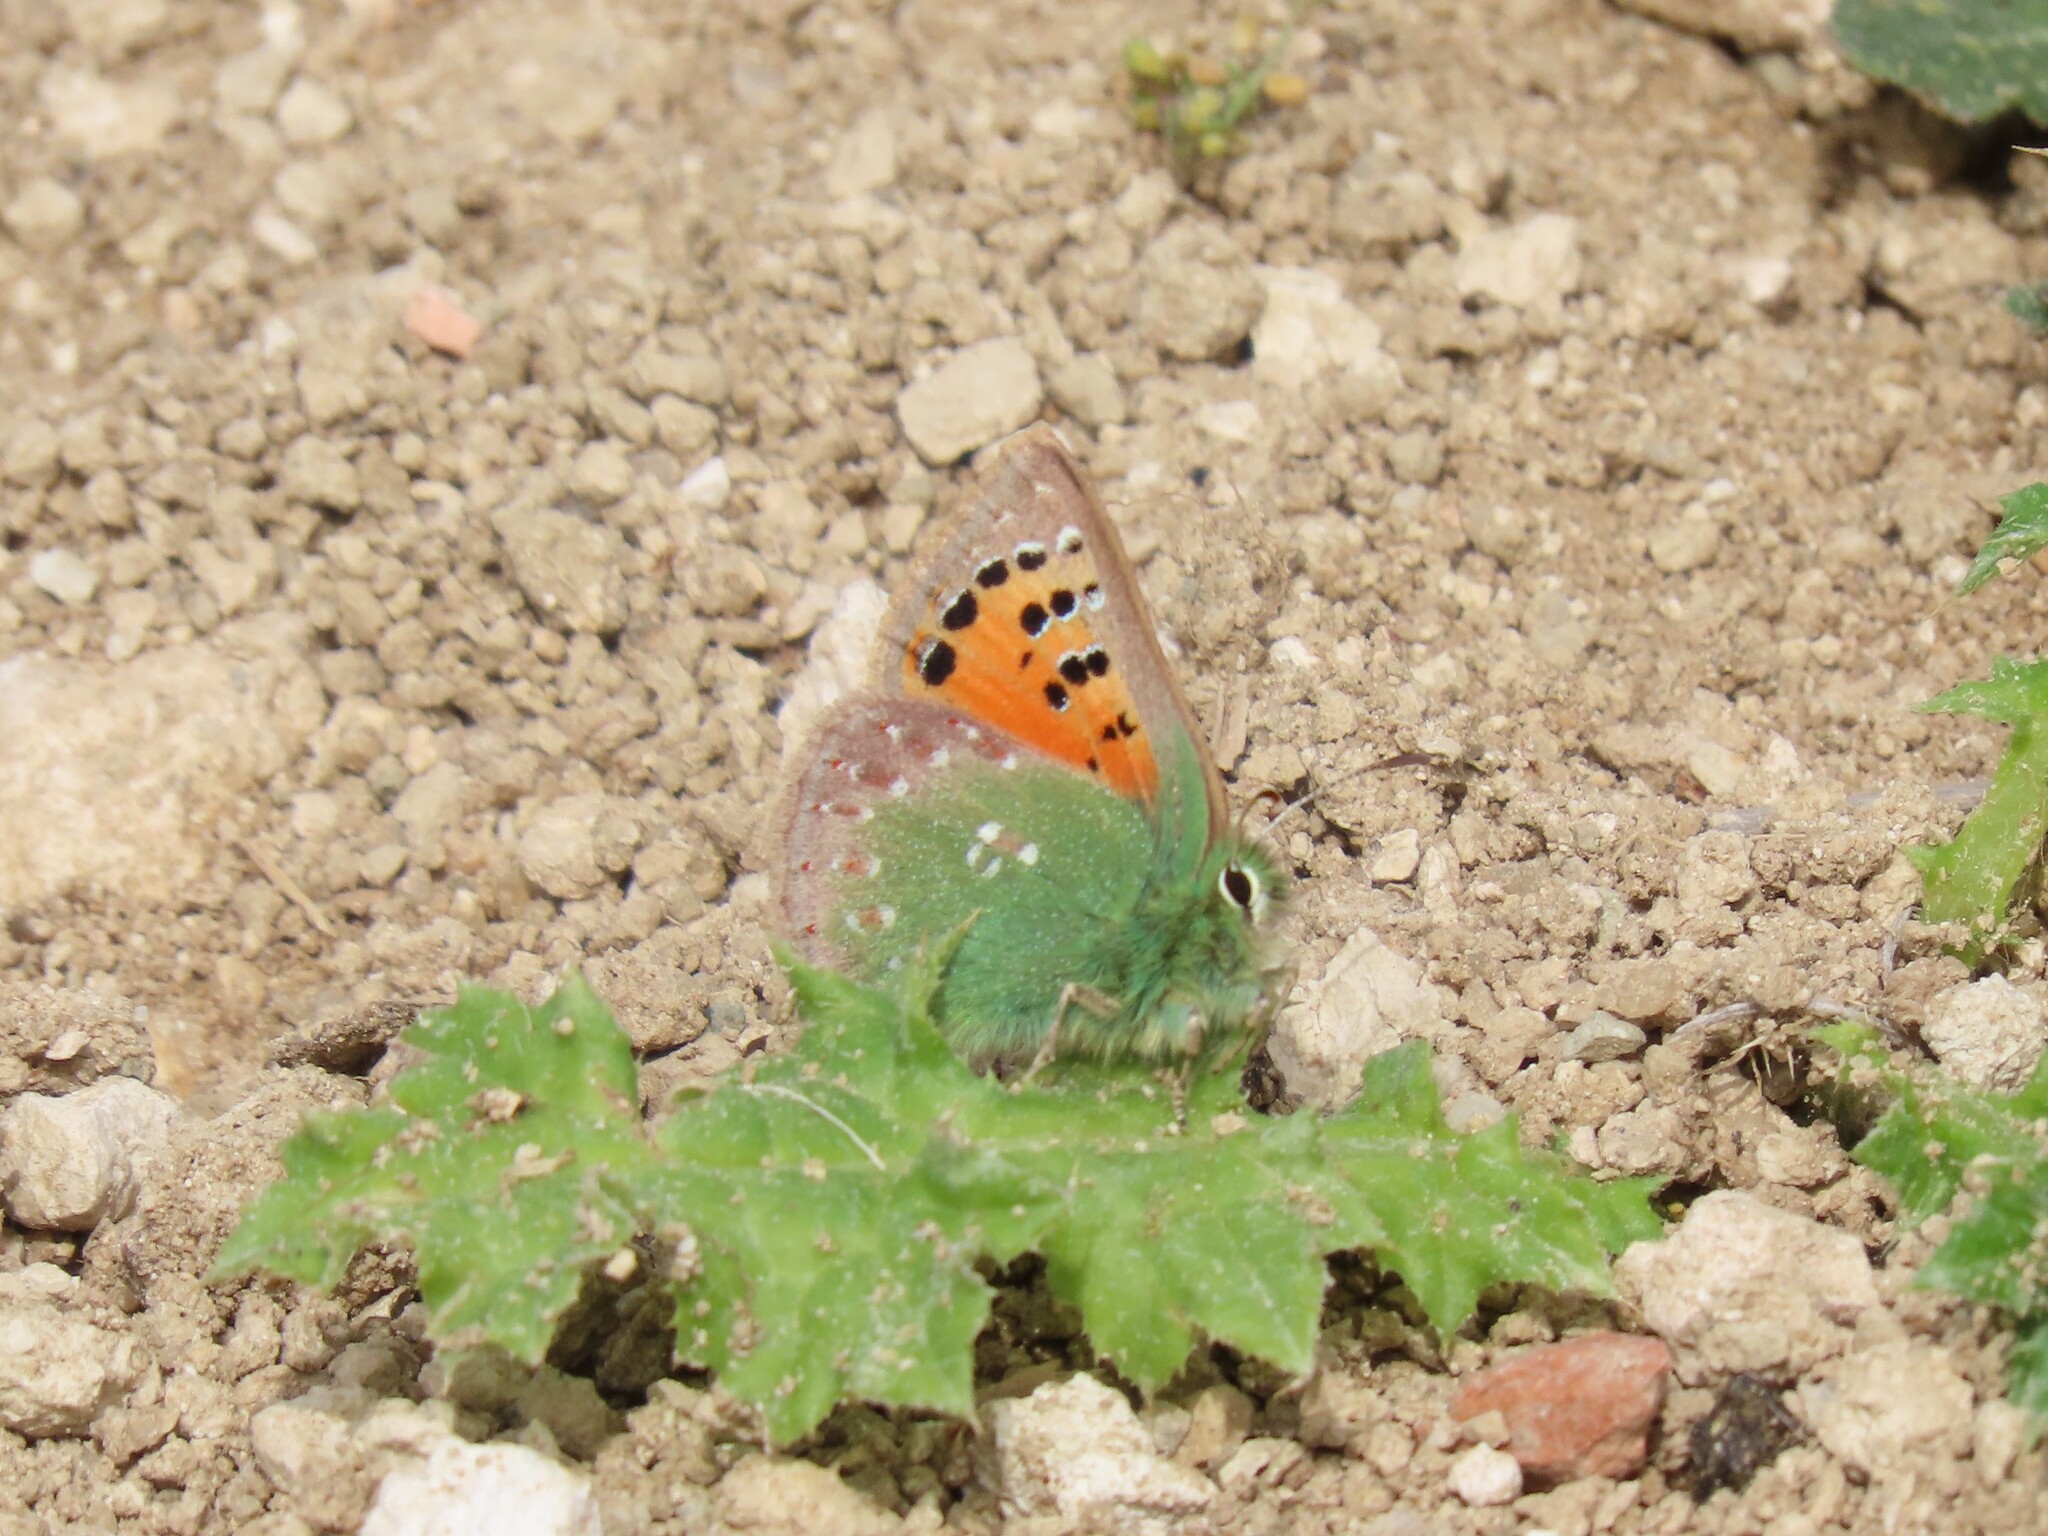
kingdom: Animalia
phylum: Arthropoda
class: Insecta
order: Lepidoptera
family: Lycaenidae
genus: Tomares
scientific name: Tomares ballus
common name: Provence hairstreak
